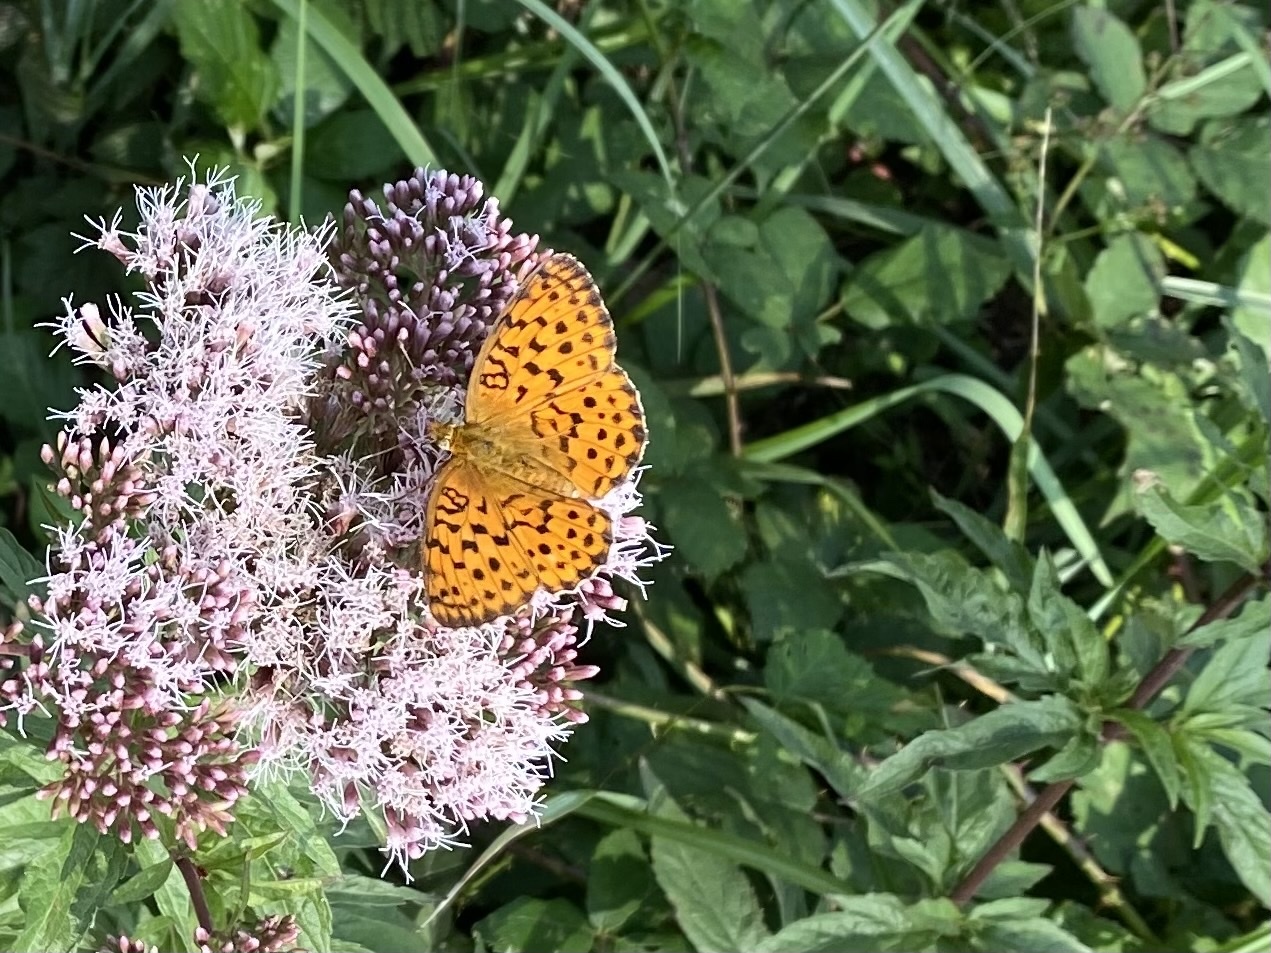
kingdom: Animalia
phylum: Arthropoda
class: Insecta
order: Lepidoptera
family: Nymphalidae
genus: Brenthis
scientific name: Brenthis daphne
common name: Marbled fritillary
